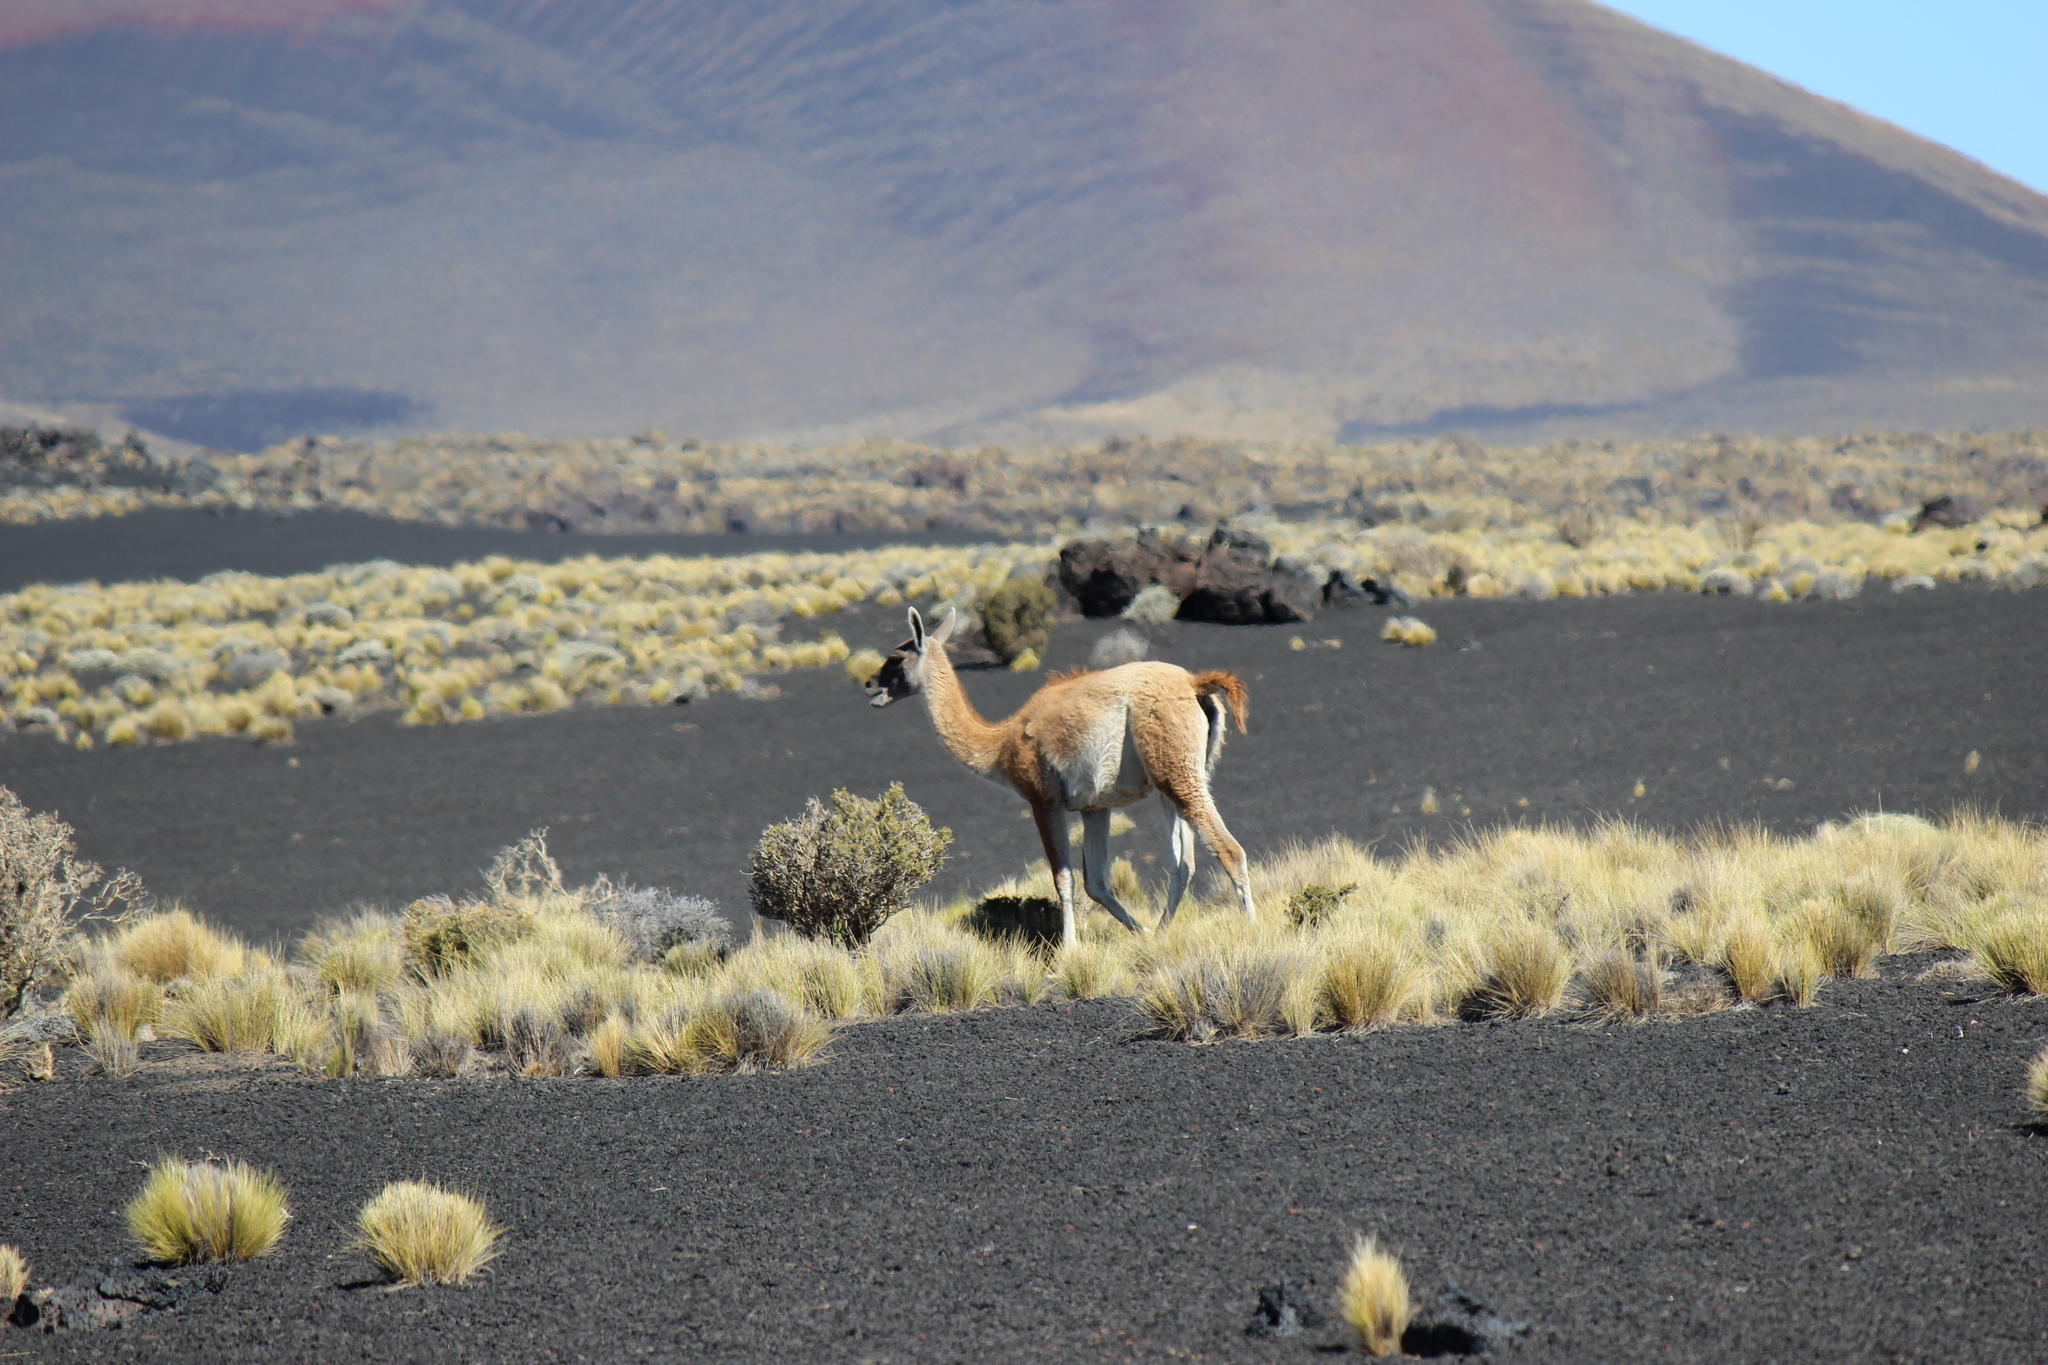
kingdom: Animalia
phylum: Chordata
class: Mammalia
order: Artiodactyla
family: Camelidae
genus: Lama
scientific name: Lama glama
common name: Llama
